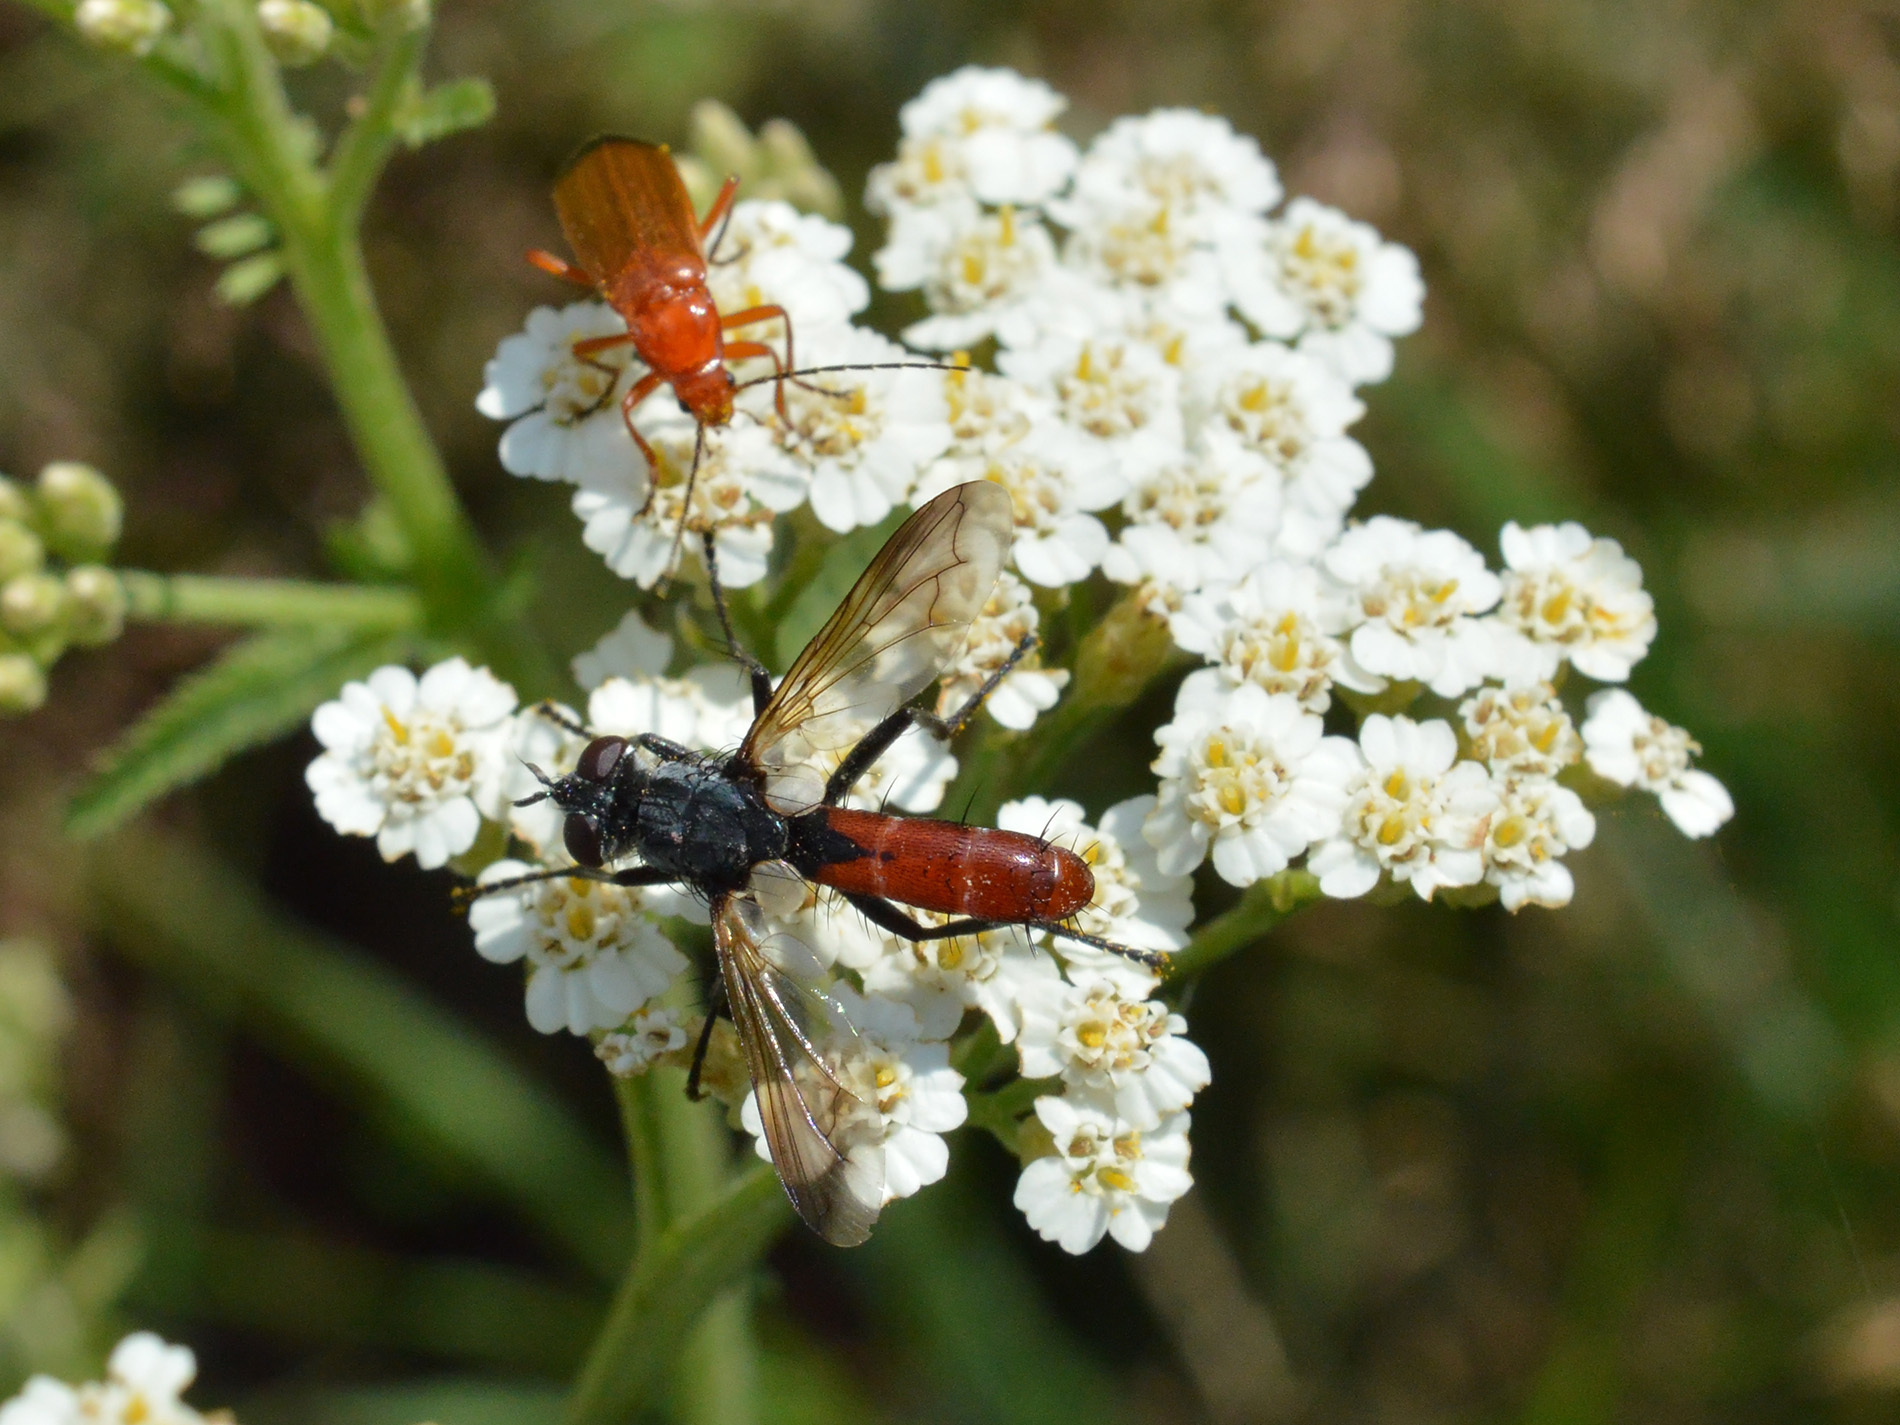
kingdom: Animalia
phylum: Arthropoda
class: Insecta
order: Diptera
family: Tachinidae
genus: Cylindromyia
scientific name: Cylindromyia bicolor
